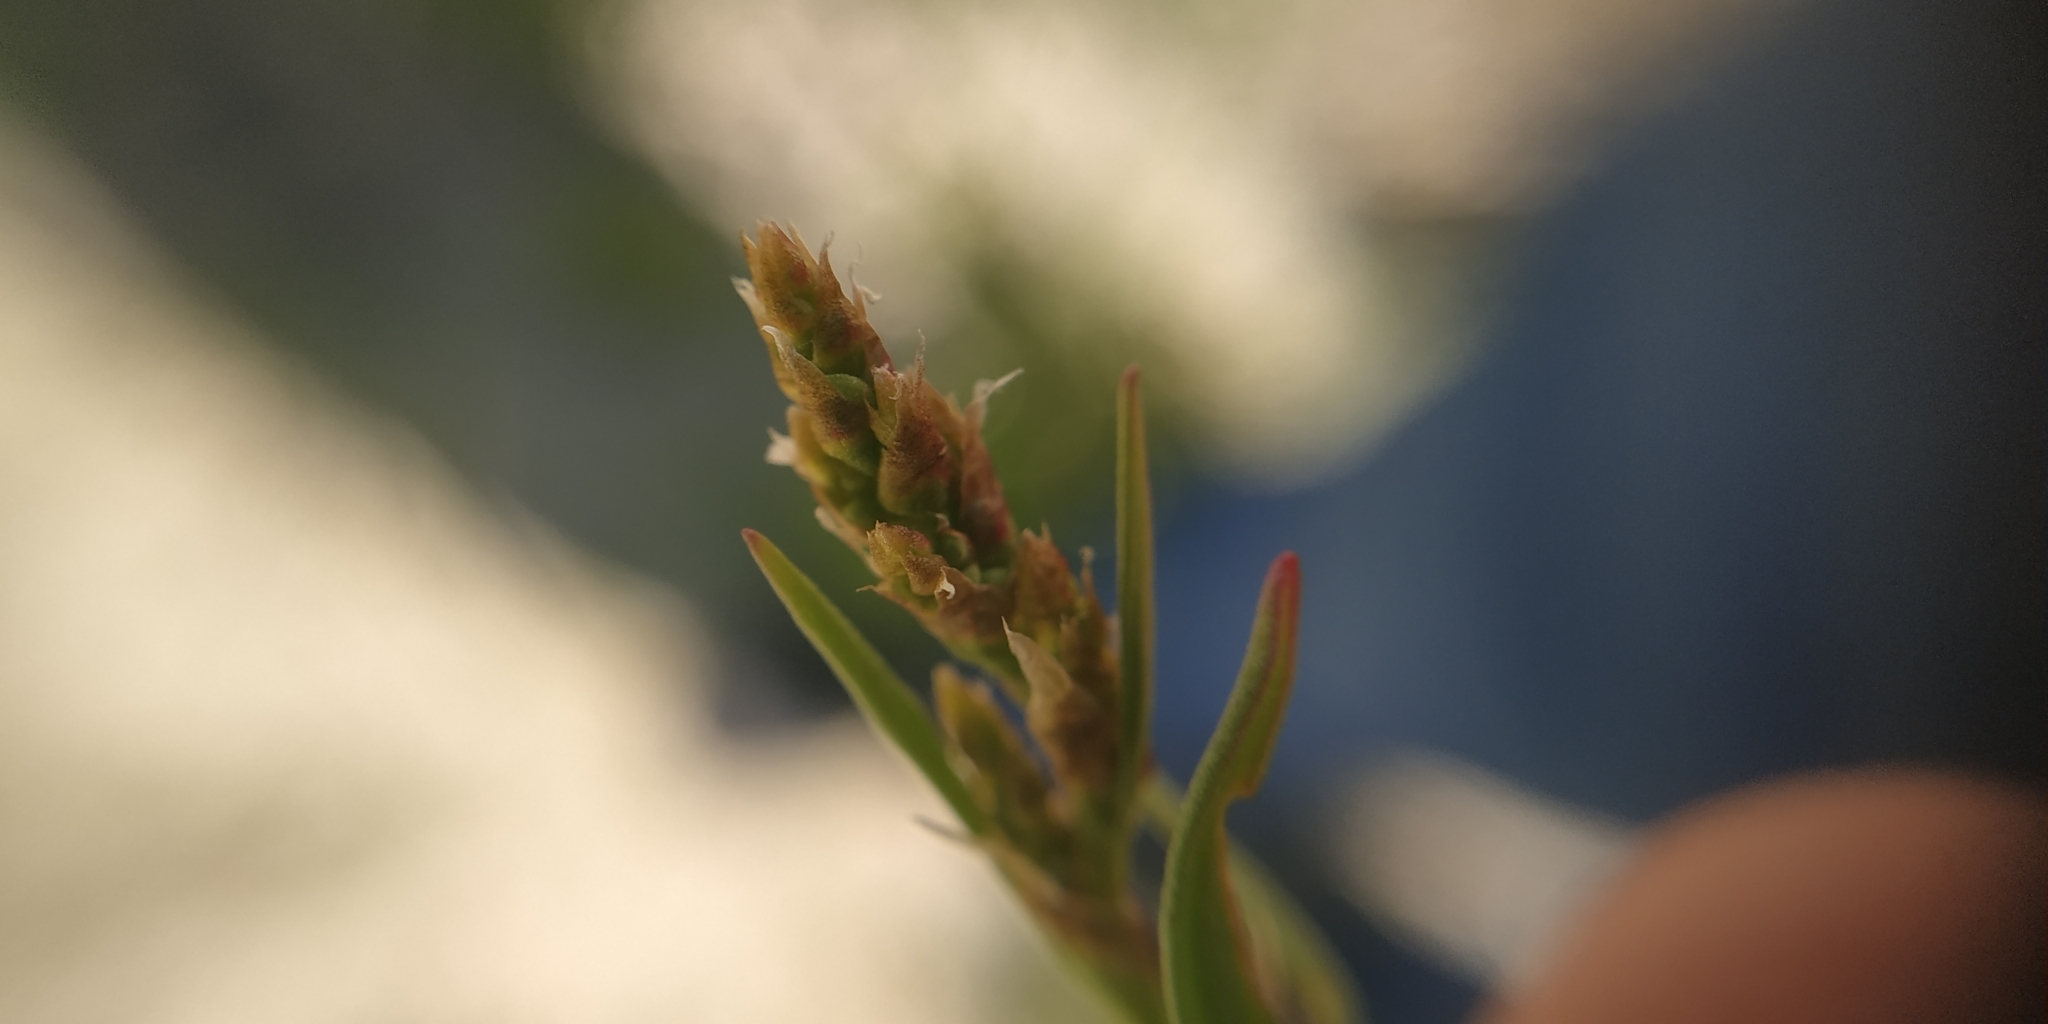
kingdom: Plantae
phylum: Tracheophyta
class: Magnoliopsida
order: Caryophyllales
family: Polygonaceae
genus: Rumex
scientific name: Rumex acetosella
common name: Common sheep sorrel
